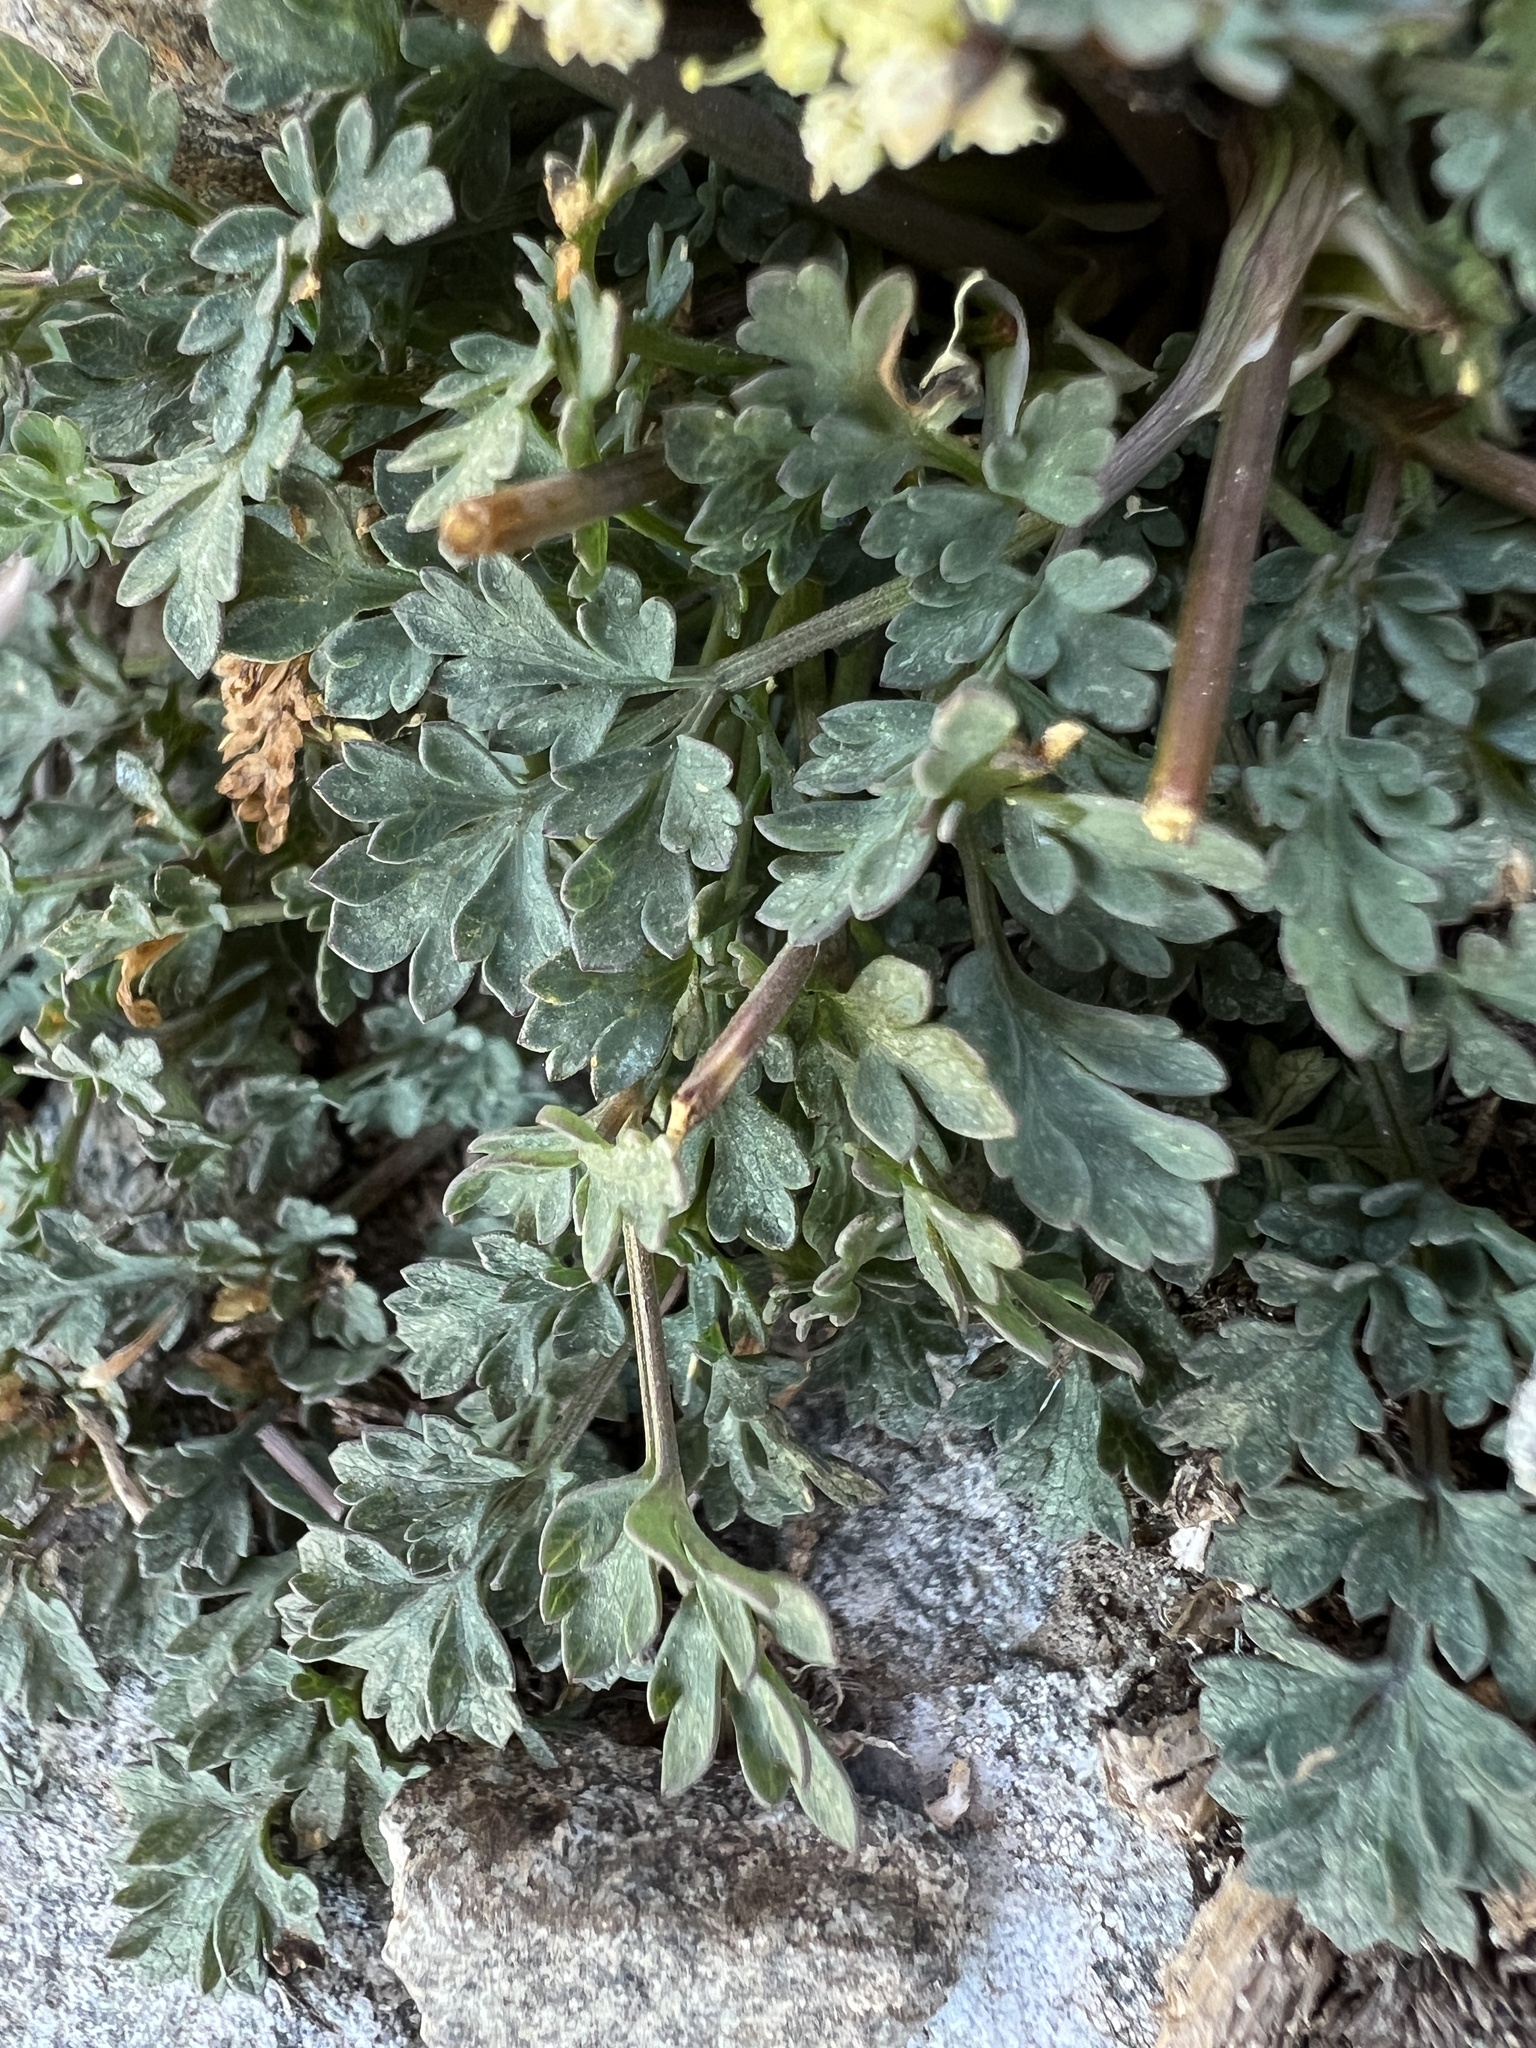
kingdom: Plantae
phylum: Tracheophyta
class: Magnoliopsida
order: Apiales
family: Apiaceae
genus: Lomatium
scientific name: Lomatium martindalei
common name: Cascade desert-parsley
